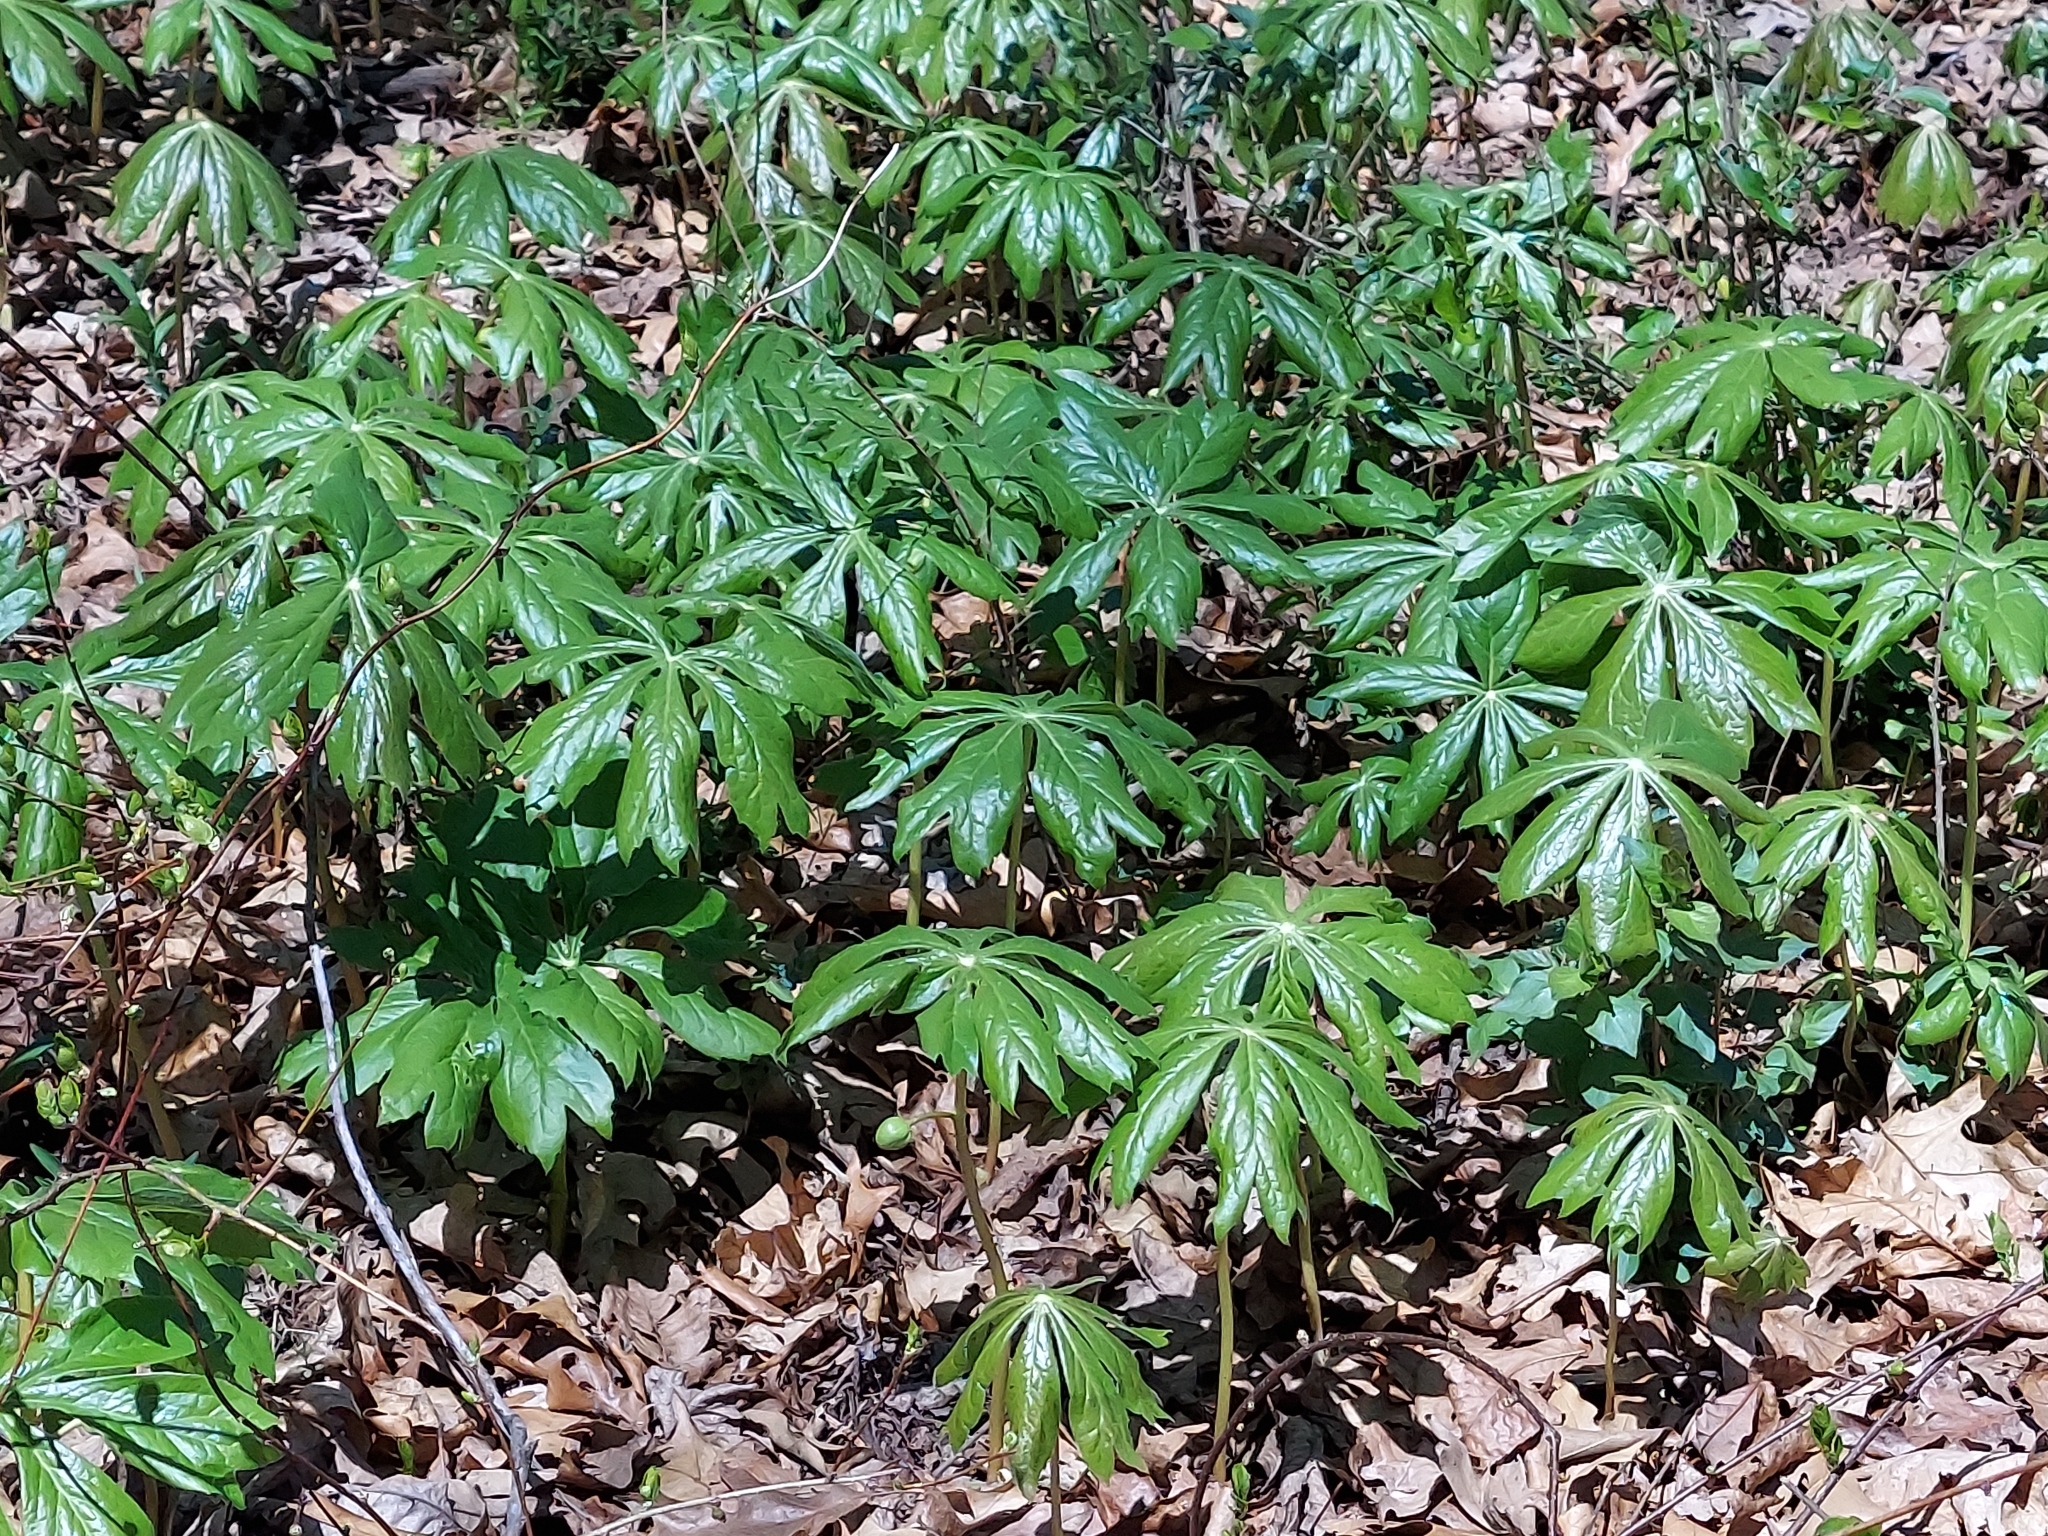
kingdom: Plantae
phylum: Tracheophyta
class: Magnoliopsida
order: Ranunculales
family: Berberidaceae
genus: Podophyllum
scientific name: Podophyllum peltatum
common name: Wild mandrake
